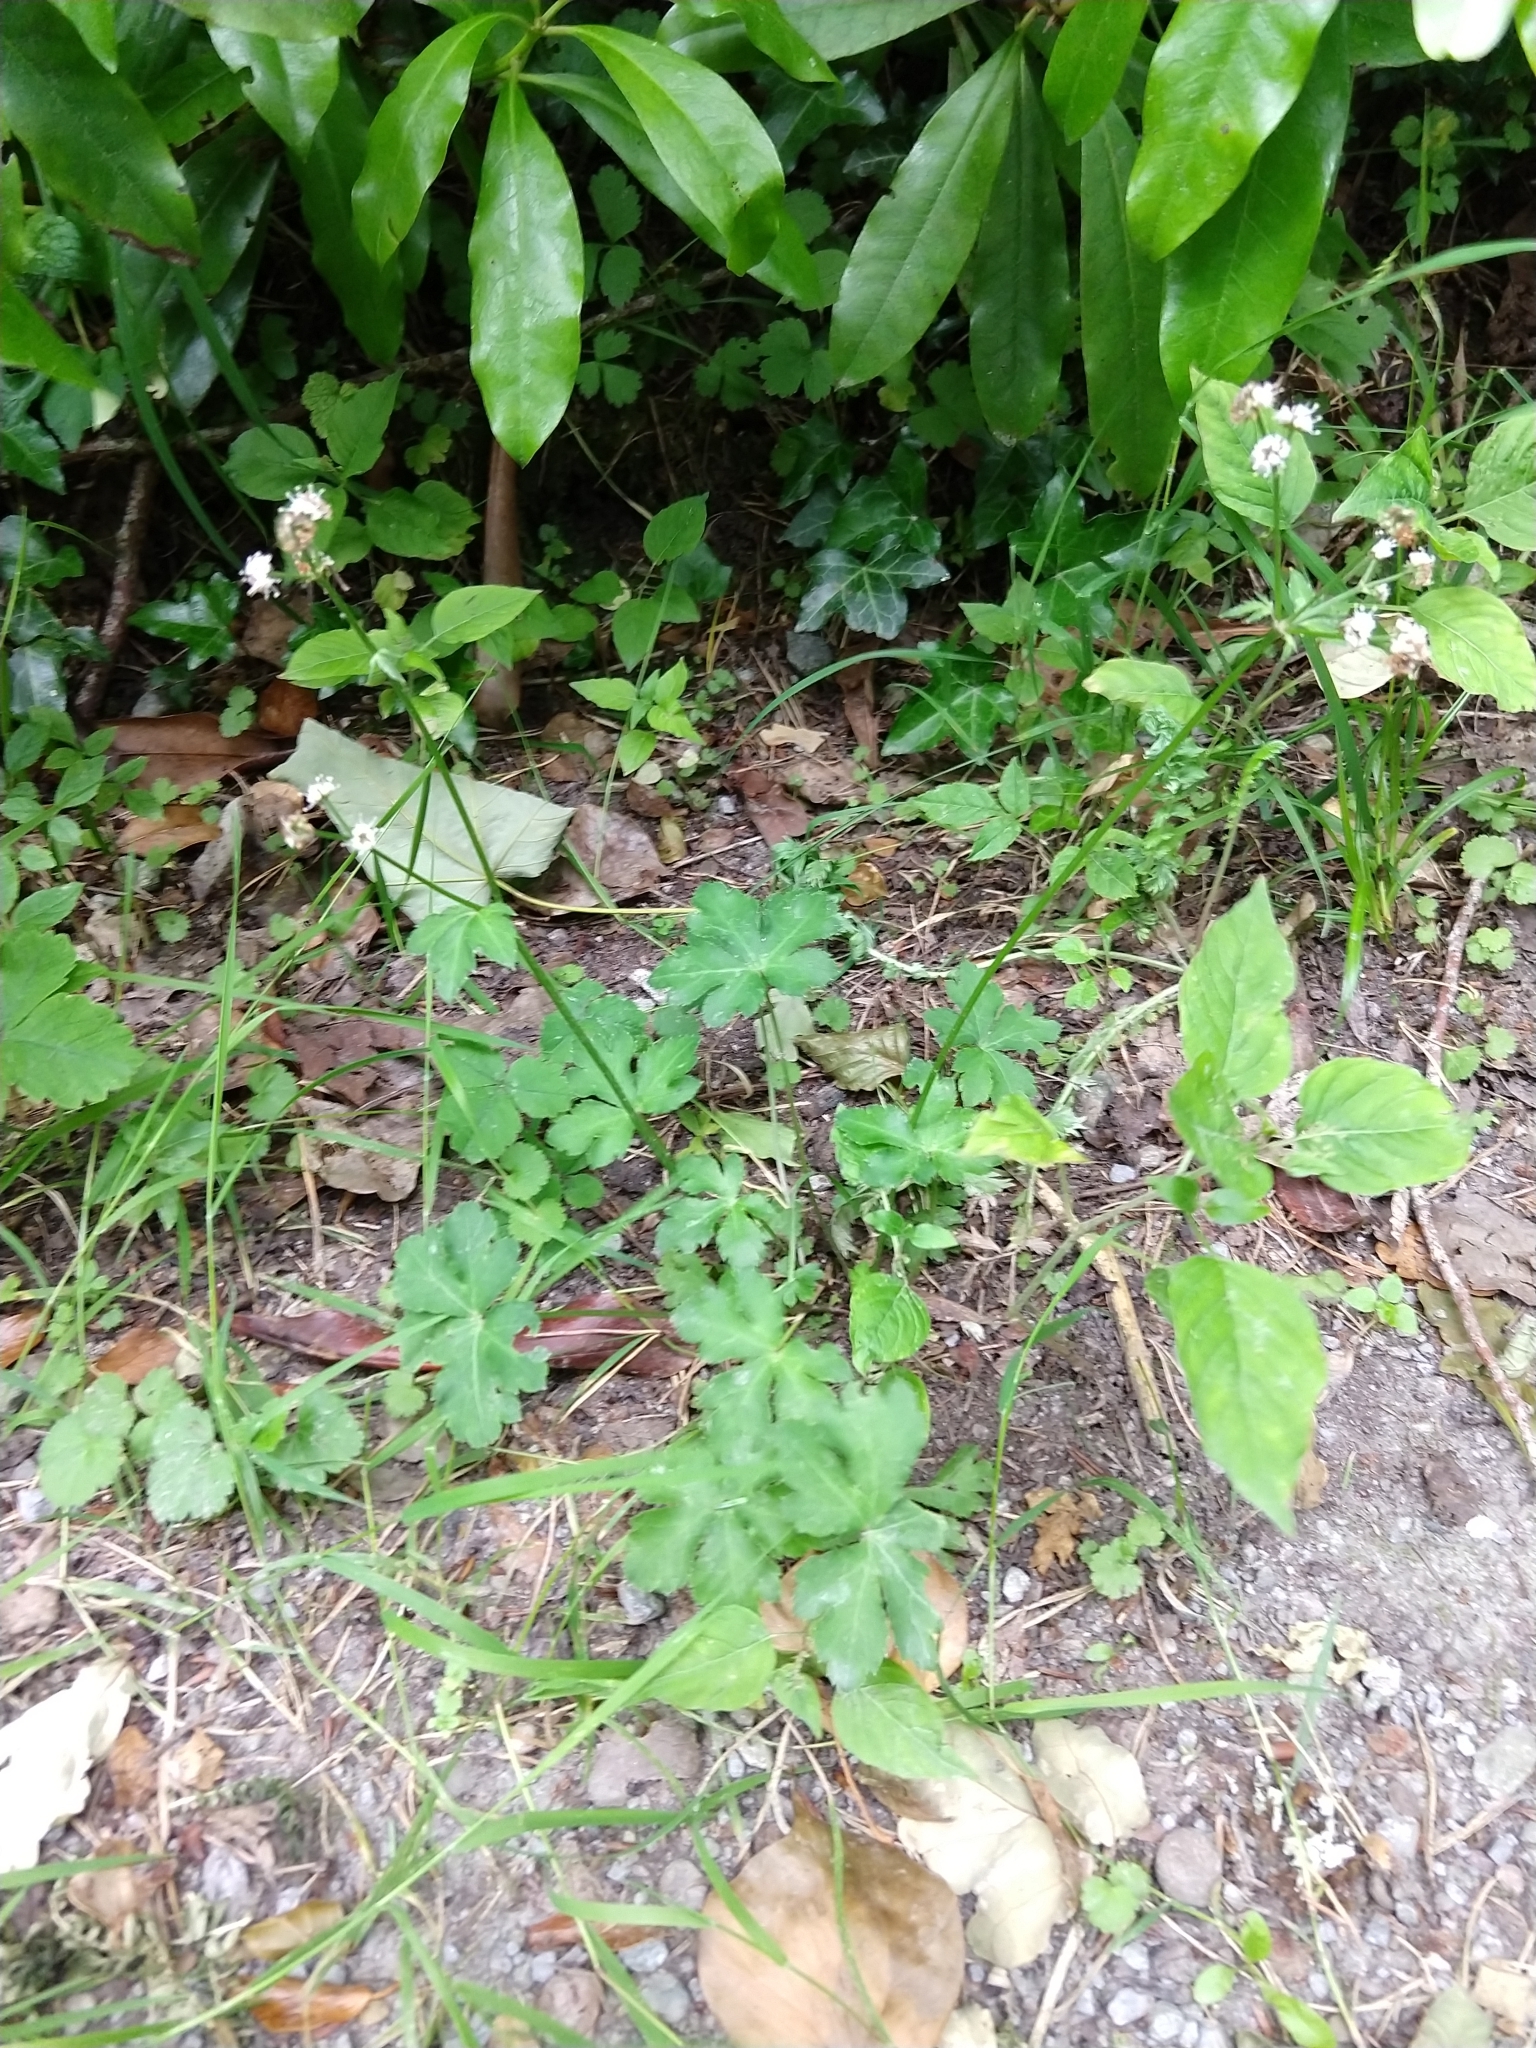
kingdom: Plantae
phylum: Tracheophyta
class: Magnoliopsida
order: Apiales
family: Apiaceae
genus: Sanicula
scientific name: Sanicula europaea
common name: Sanicle
